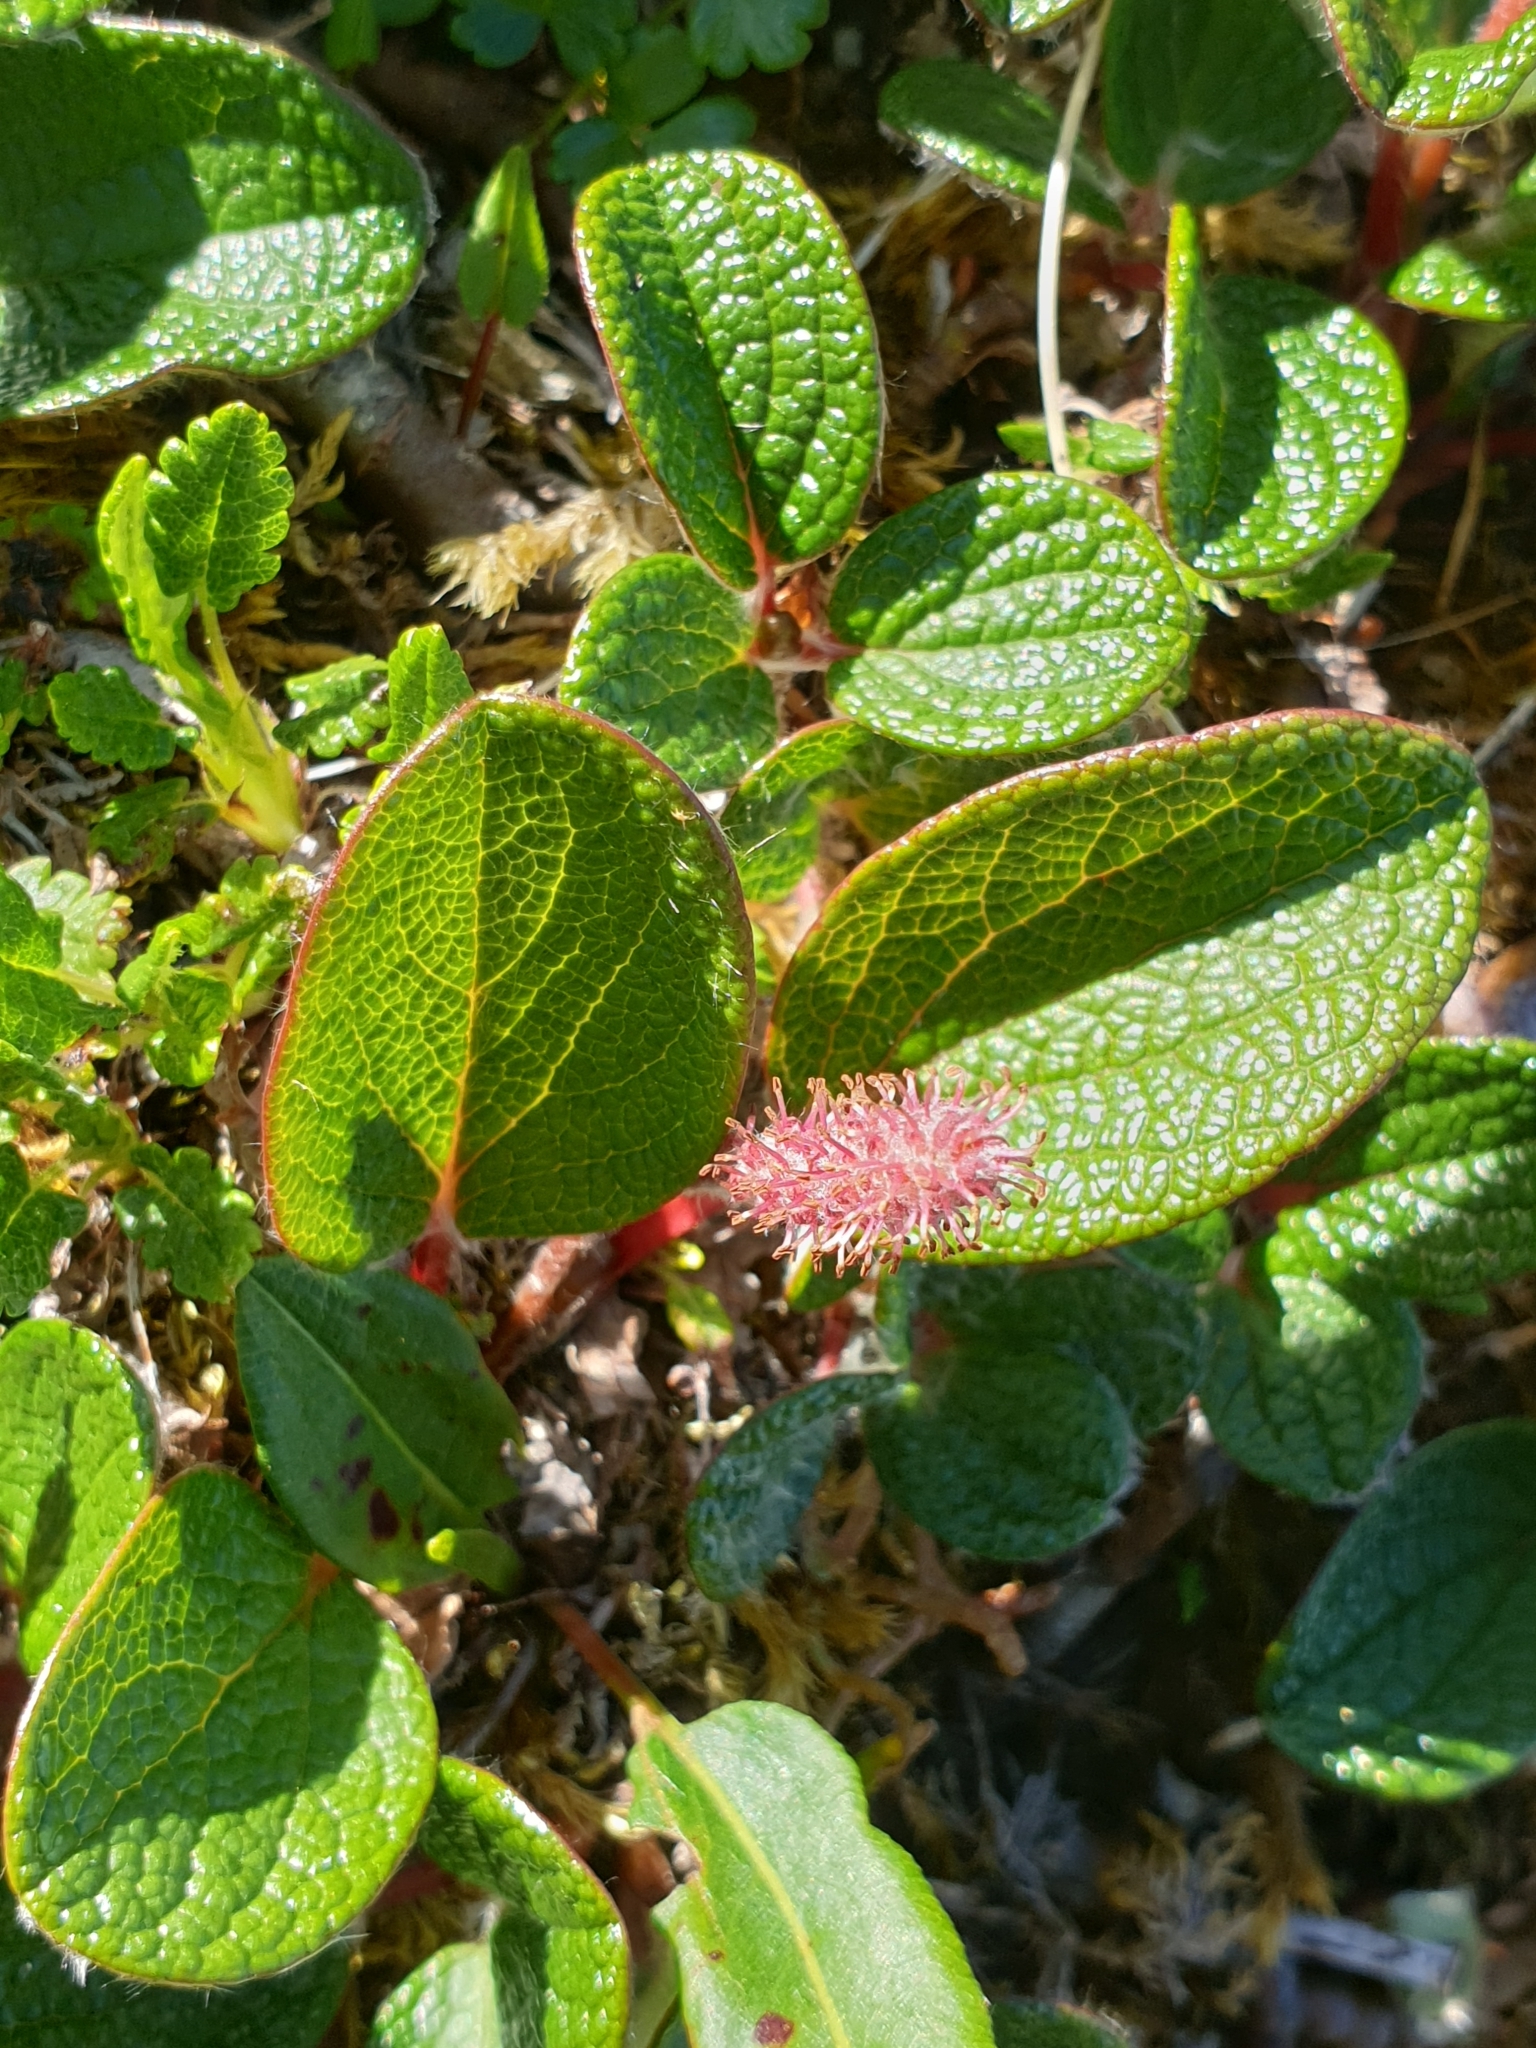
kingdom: Plantae
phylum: Tracheophyta
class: Magnoliopsida
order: Malpighiales
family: Salicaceae
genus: Salix
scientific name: Salix reticulata
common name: Net-leaved willow
